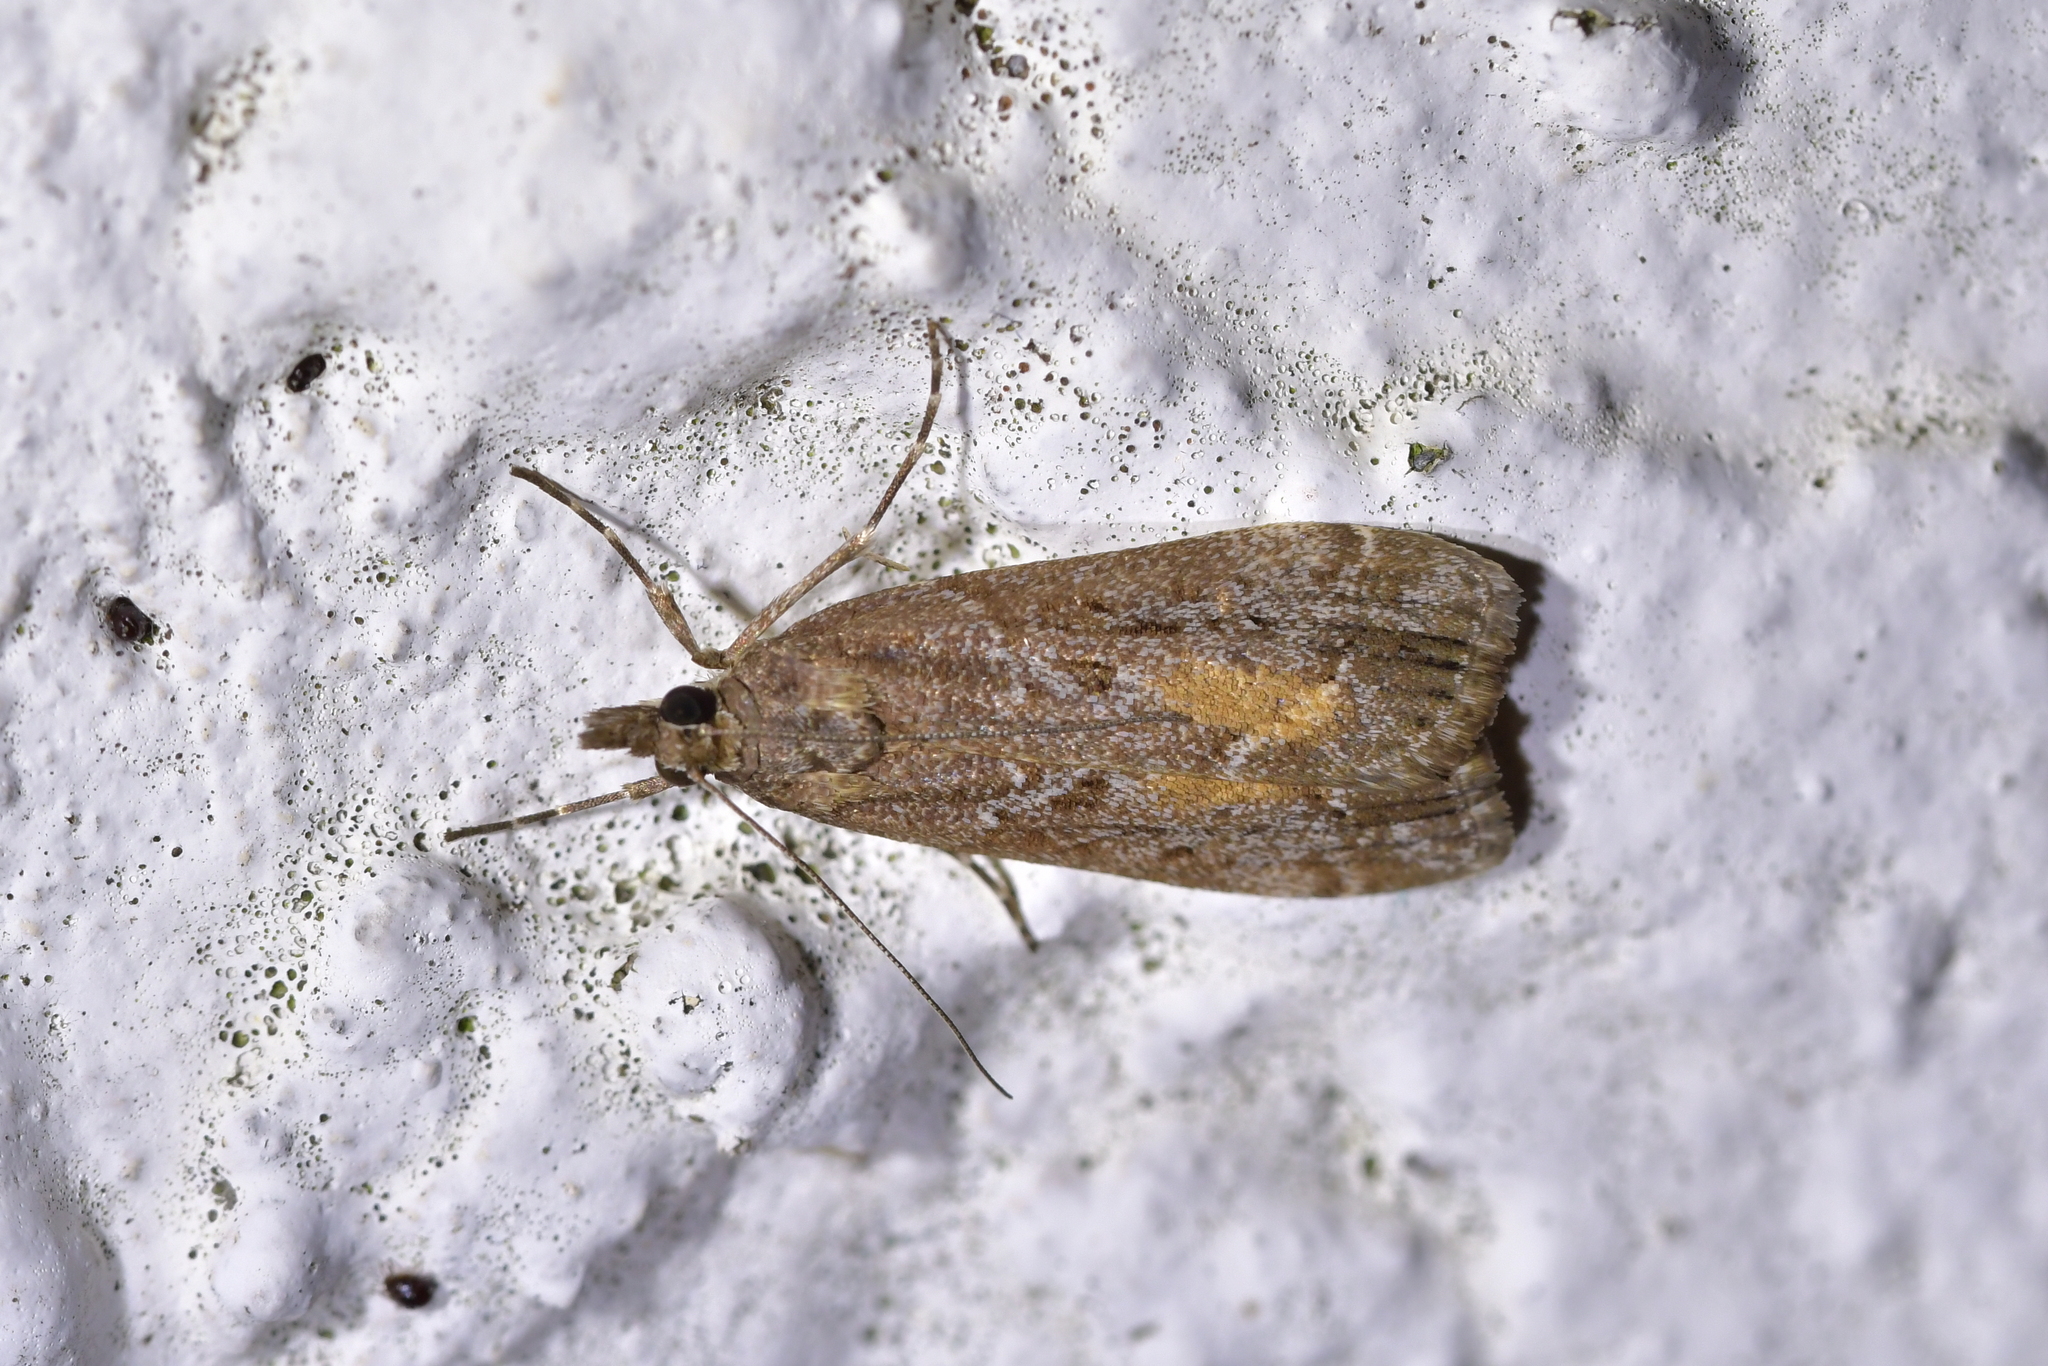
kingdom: Animalia
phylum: Arthropoda
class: Insecta
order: Lepidoptera
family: Crambidae
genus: Eudonia
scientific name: Eudonia submarginalis
